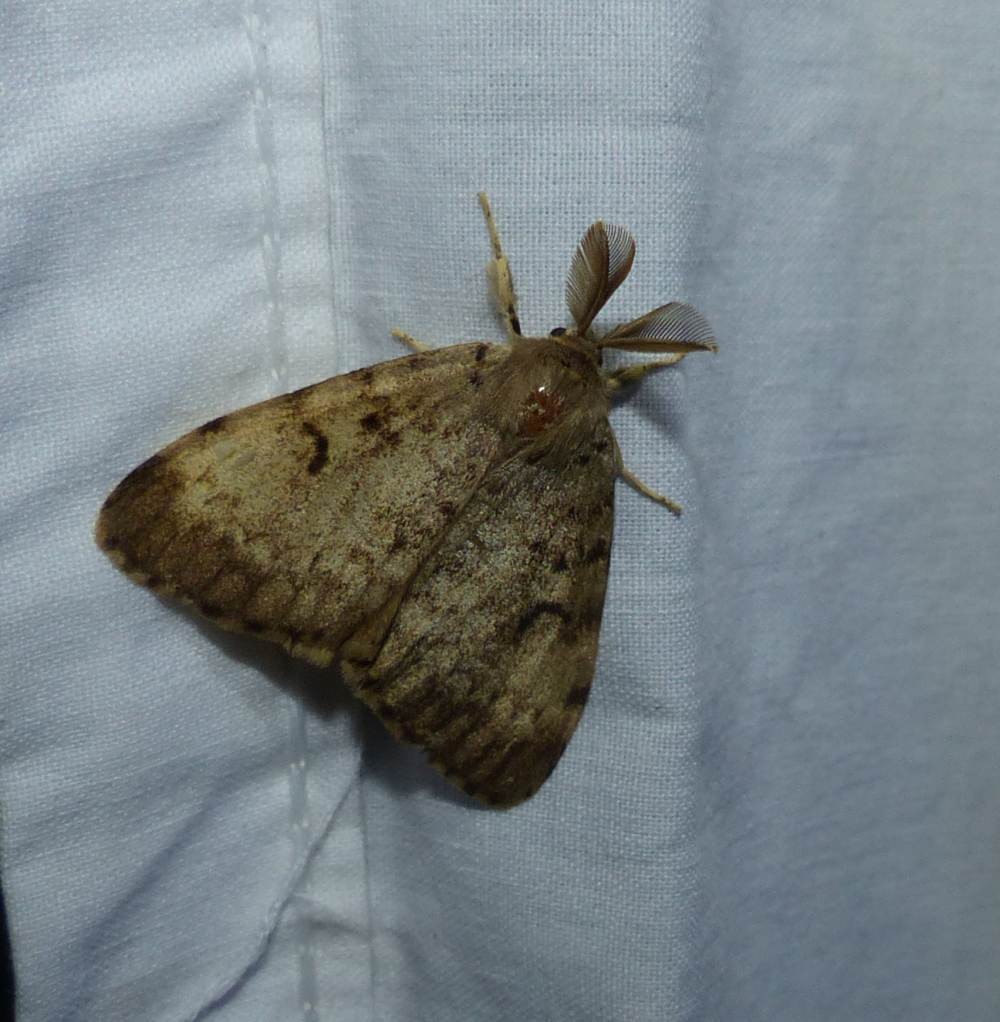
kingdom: Animalia
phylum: Arthropoda
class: Insecta
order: Lepidoptera
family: Erebidae
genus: Lymantria
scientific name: Lymantria dispar
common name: Gypsy moth
